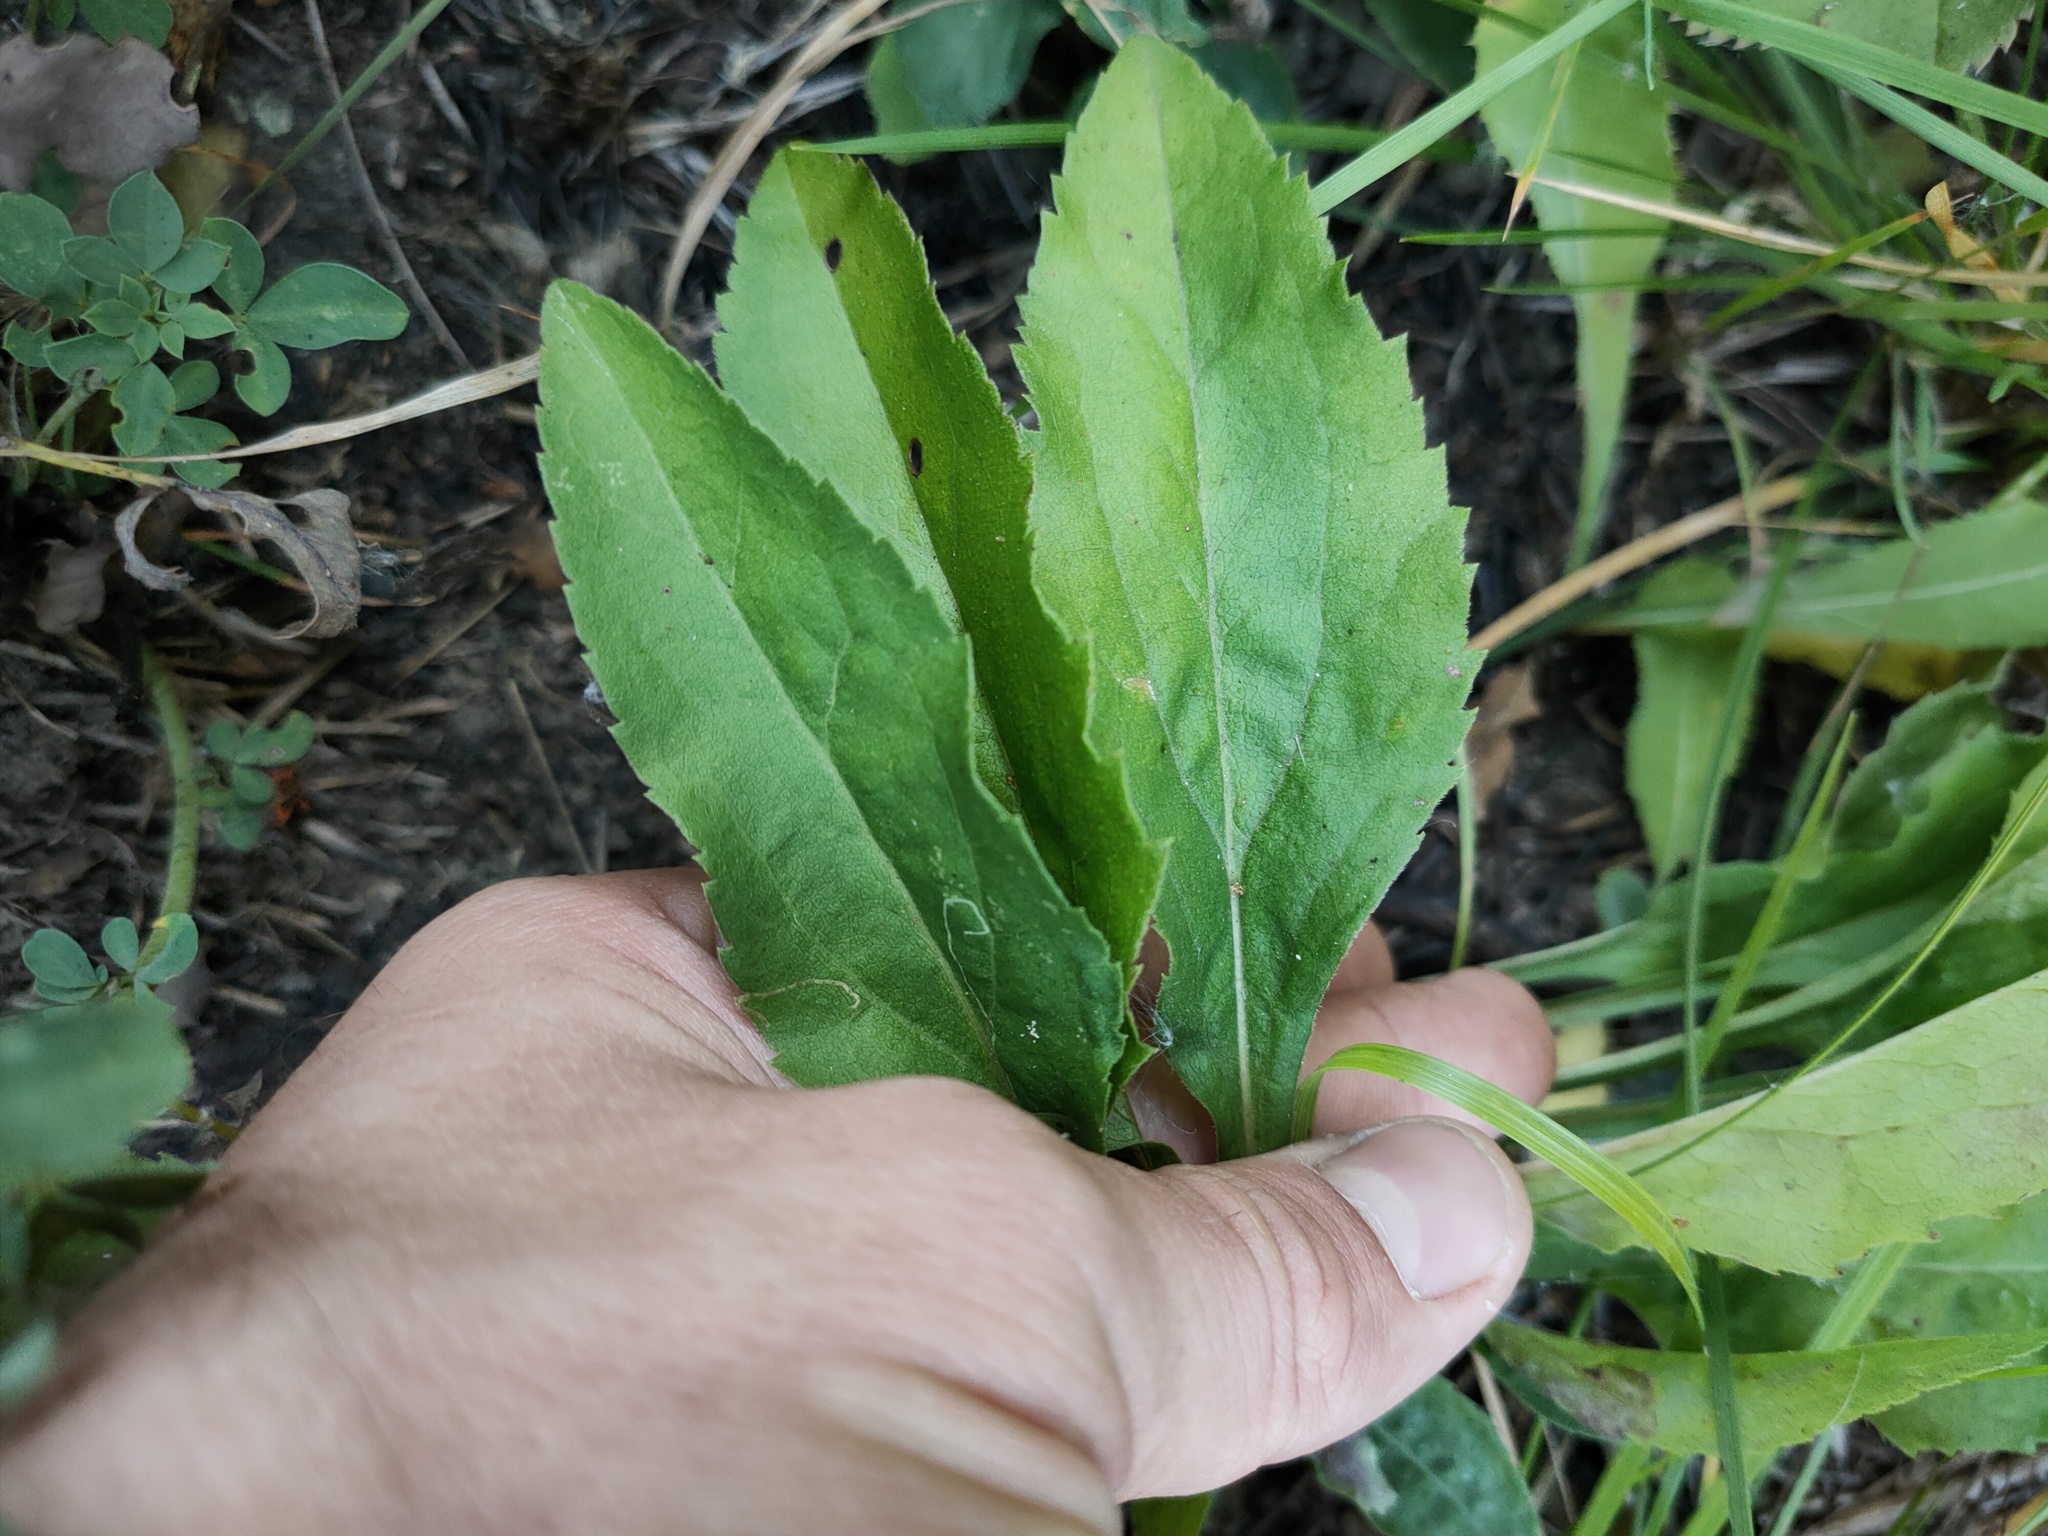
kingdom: Plantae
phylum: Tracheophyta
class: Magnoliopsida
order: Asterales
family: Asteraceae
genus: Solidago
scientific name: Solidago virgaurea
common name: Goldenrod
